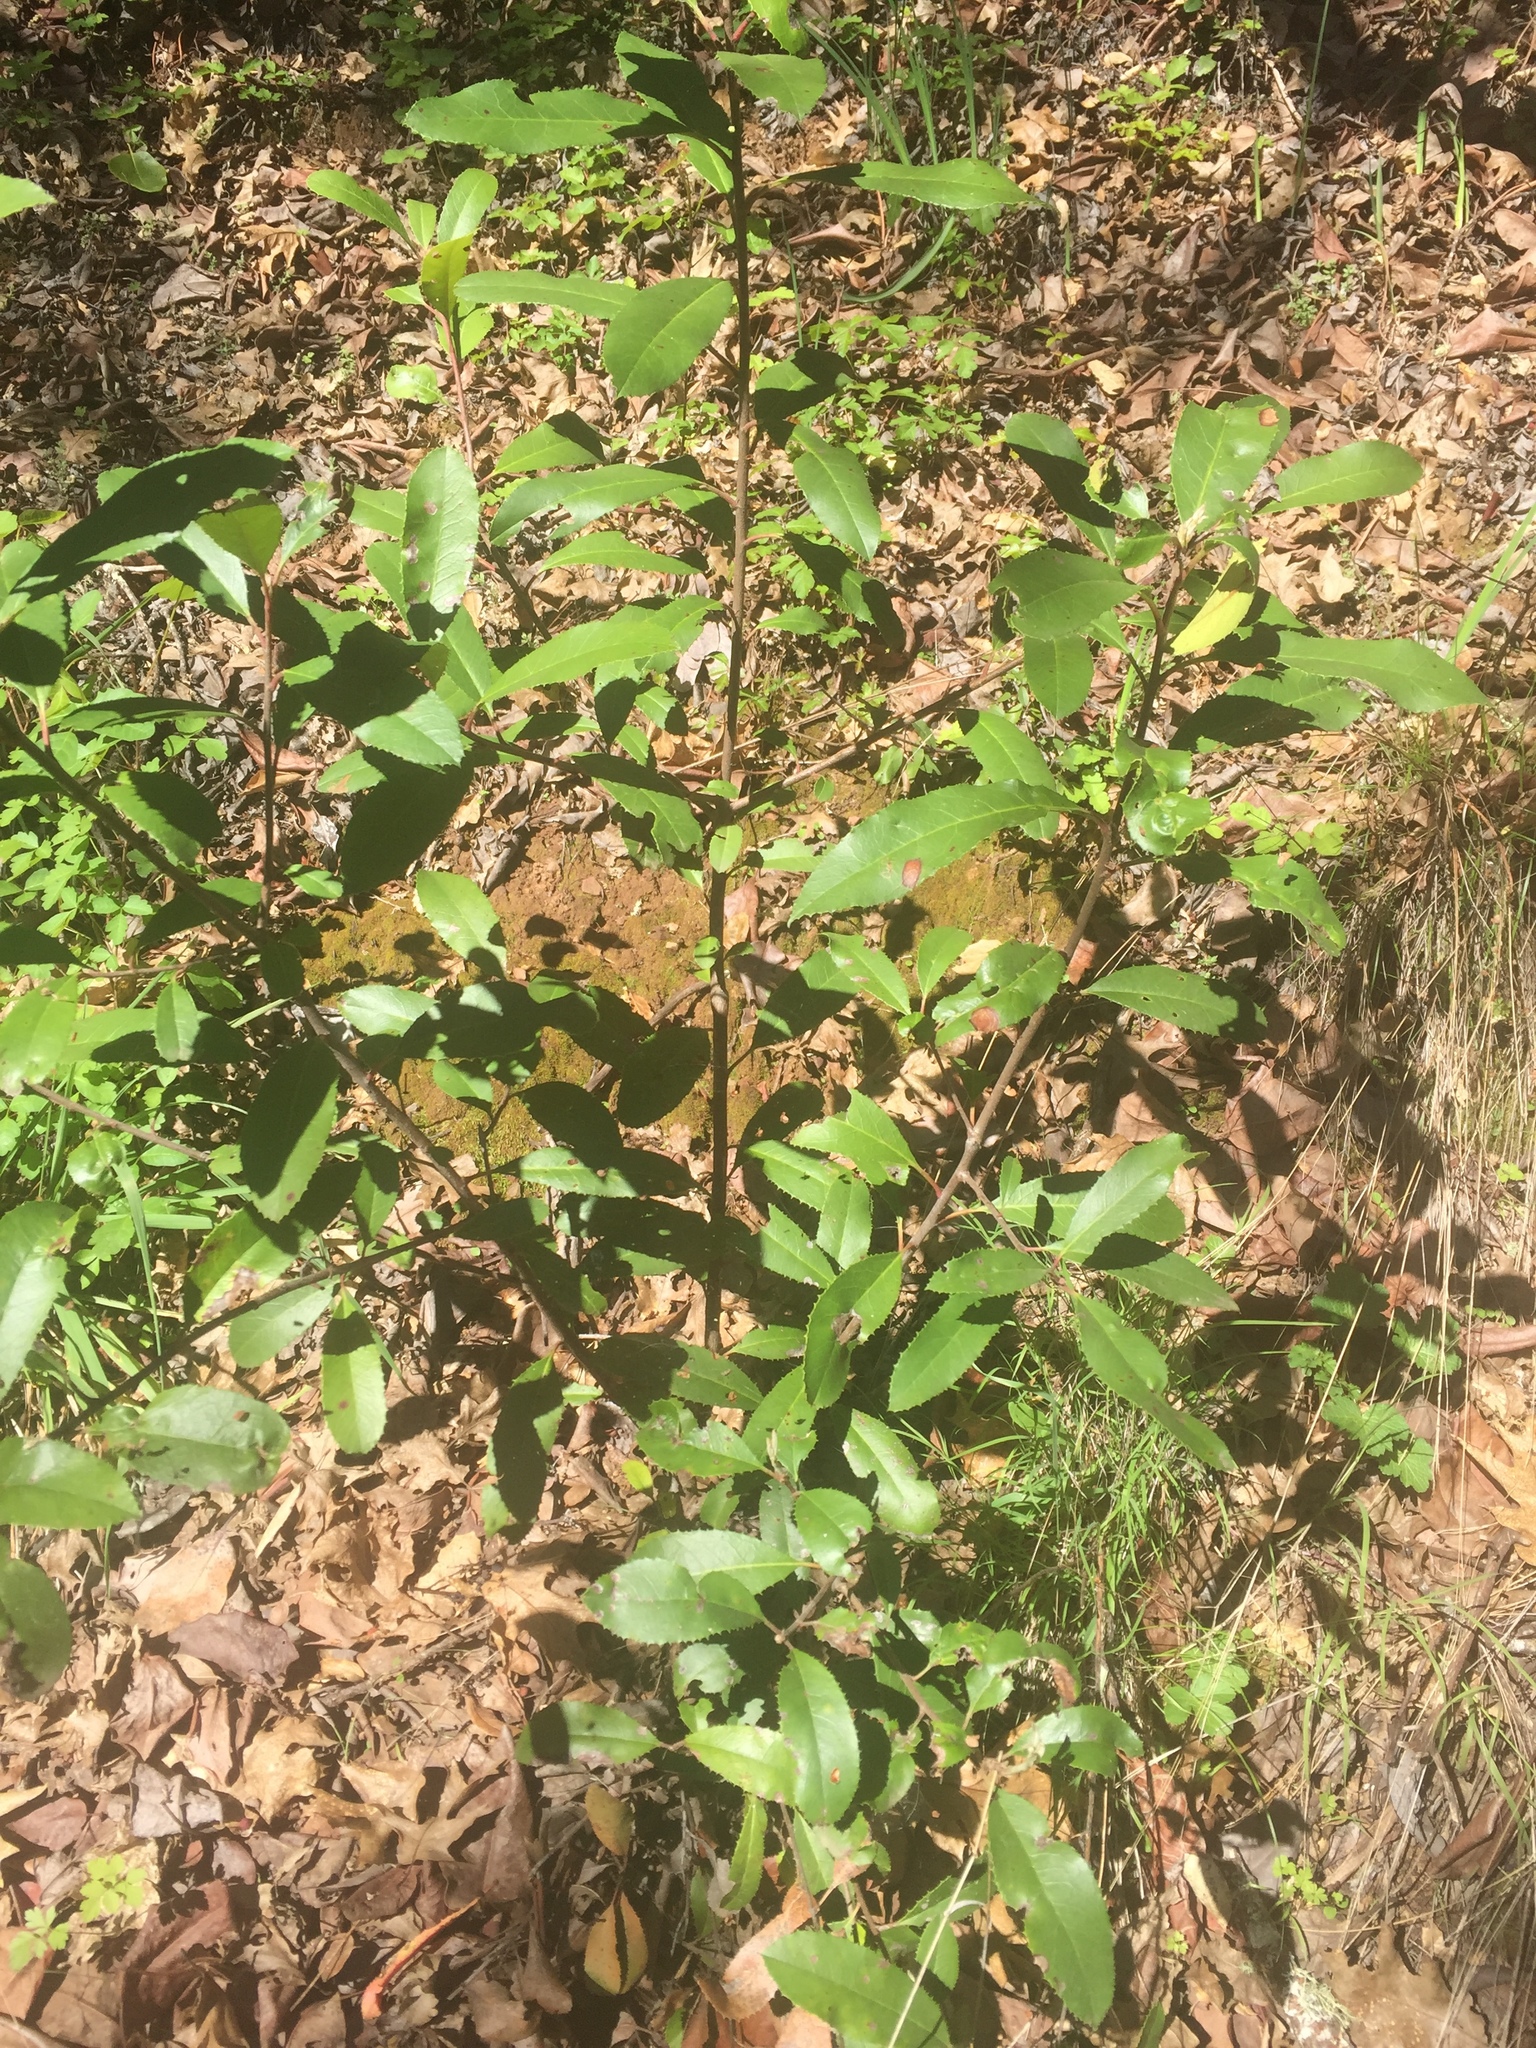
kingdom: Plantae
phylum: Tracheophyta
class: Magnoliopsida
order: Rosales
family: Rosaceae
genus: Heteromeles
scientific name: Heteromeles arbutifolia
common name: California-holly
